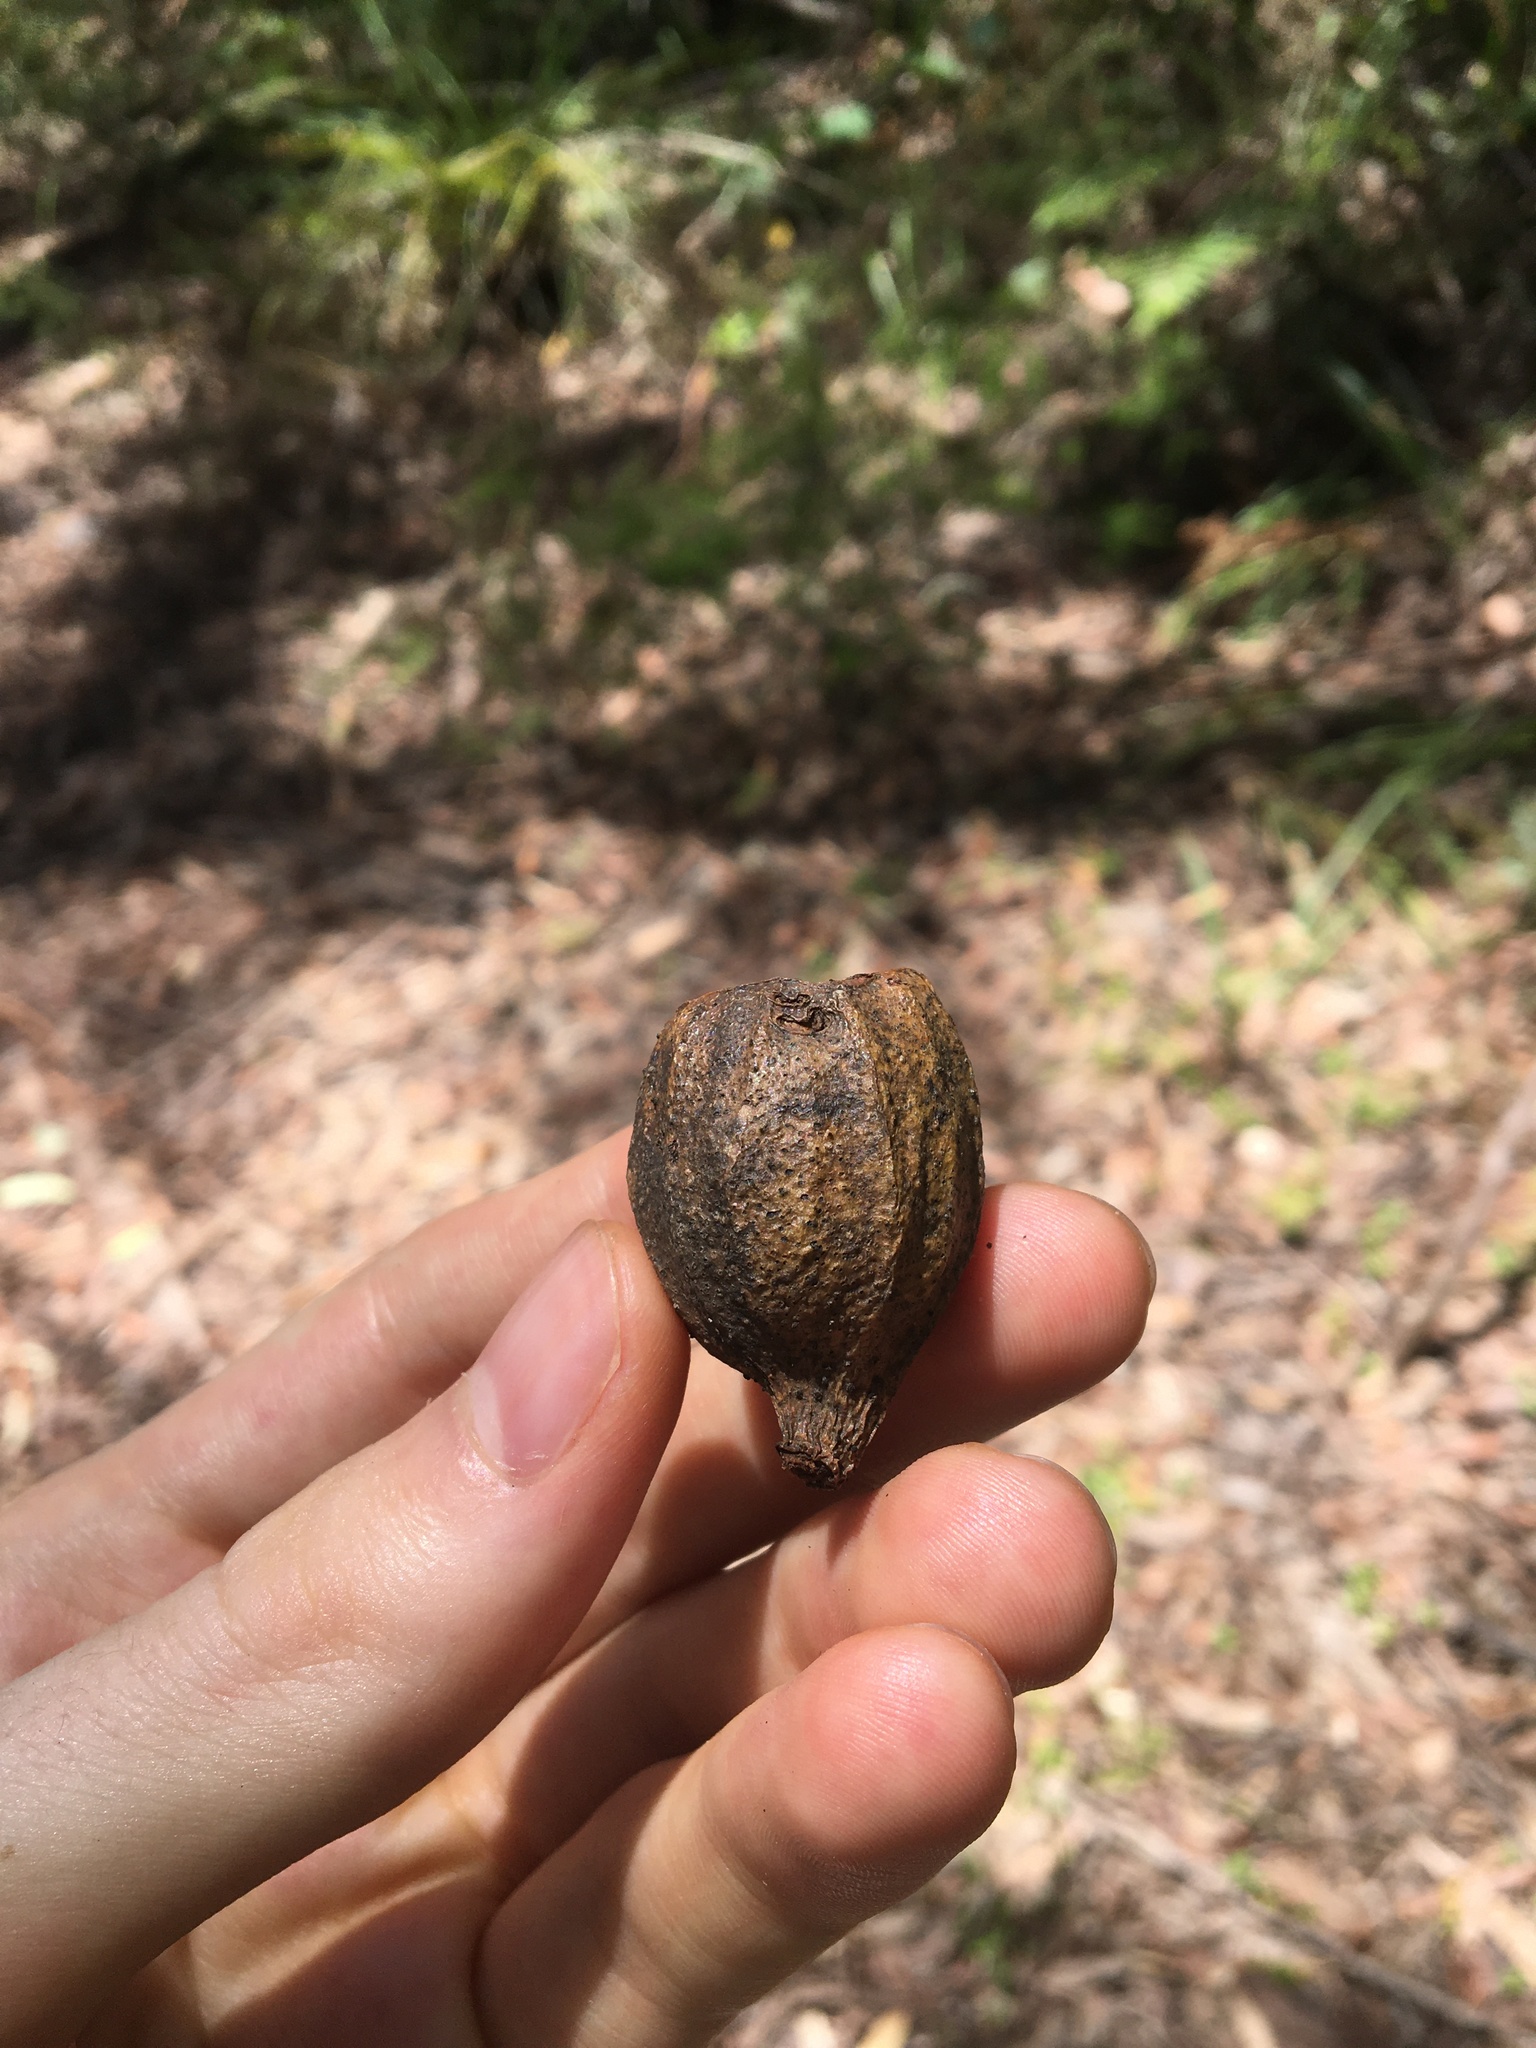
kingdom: Plantae
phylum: Tracheophyta
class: Magnoliopsida
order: Myrtales
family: Myrtaceae
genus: Eucalyptus
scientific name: Eucalyptus planchoniana
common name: Bastard-tallow-wood
